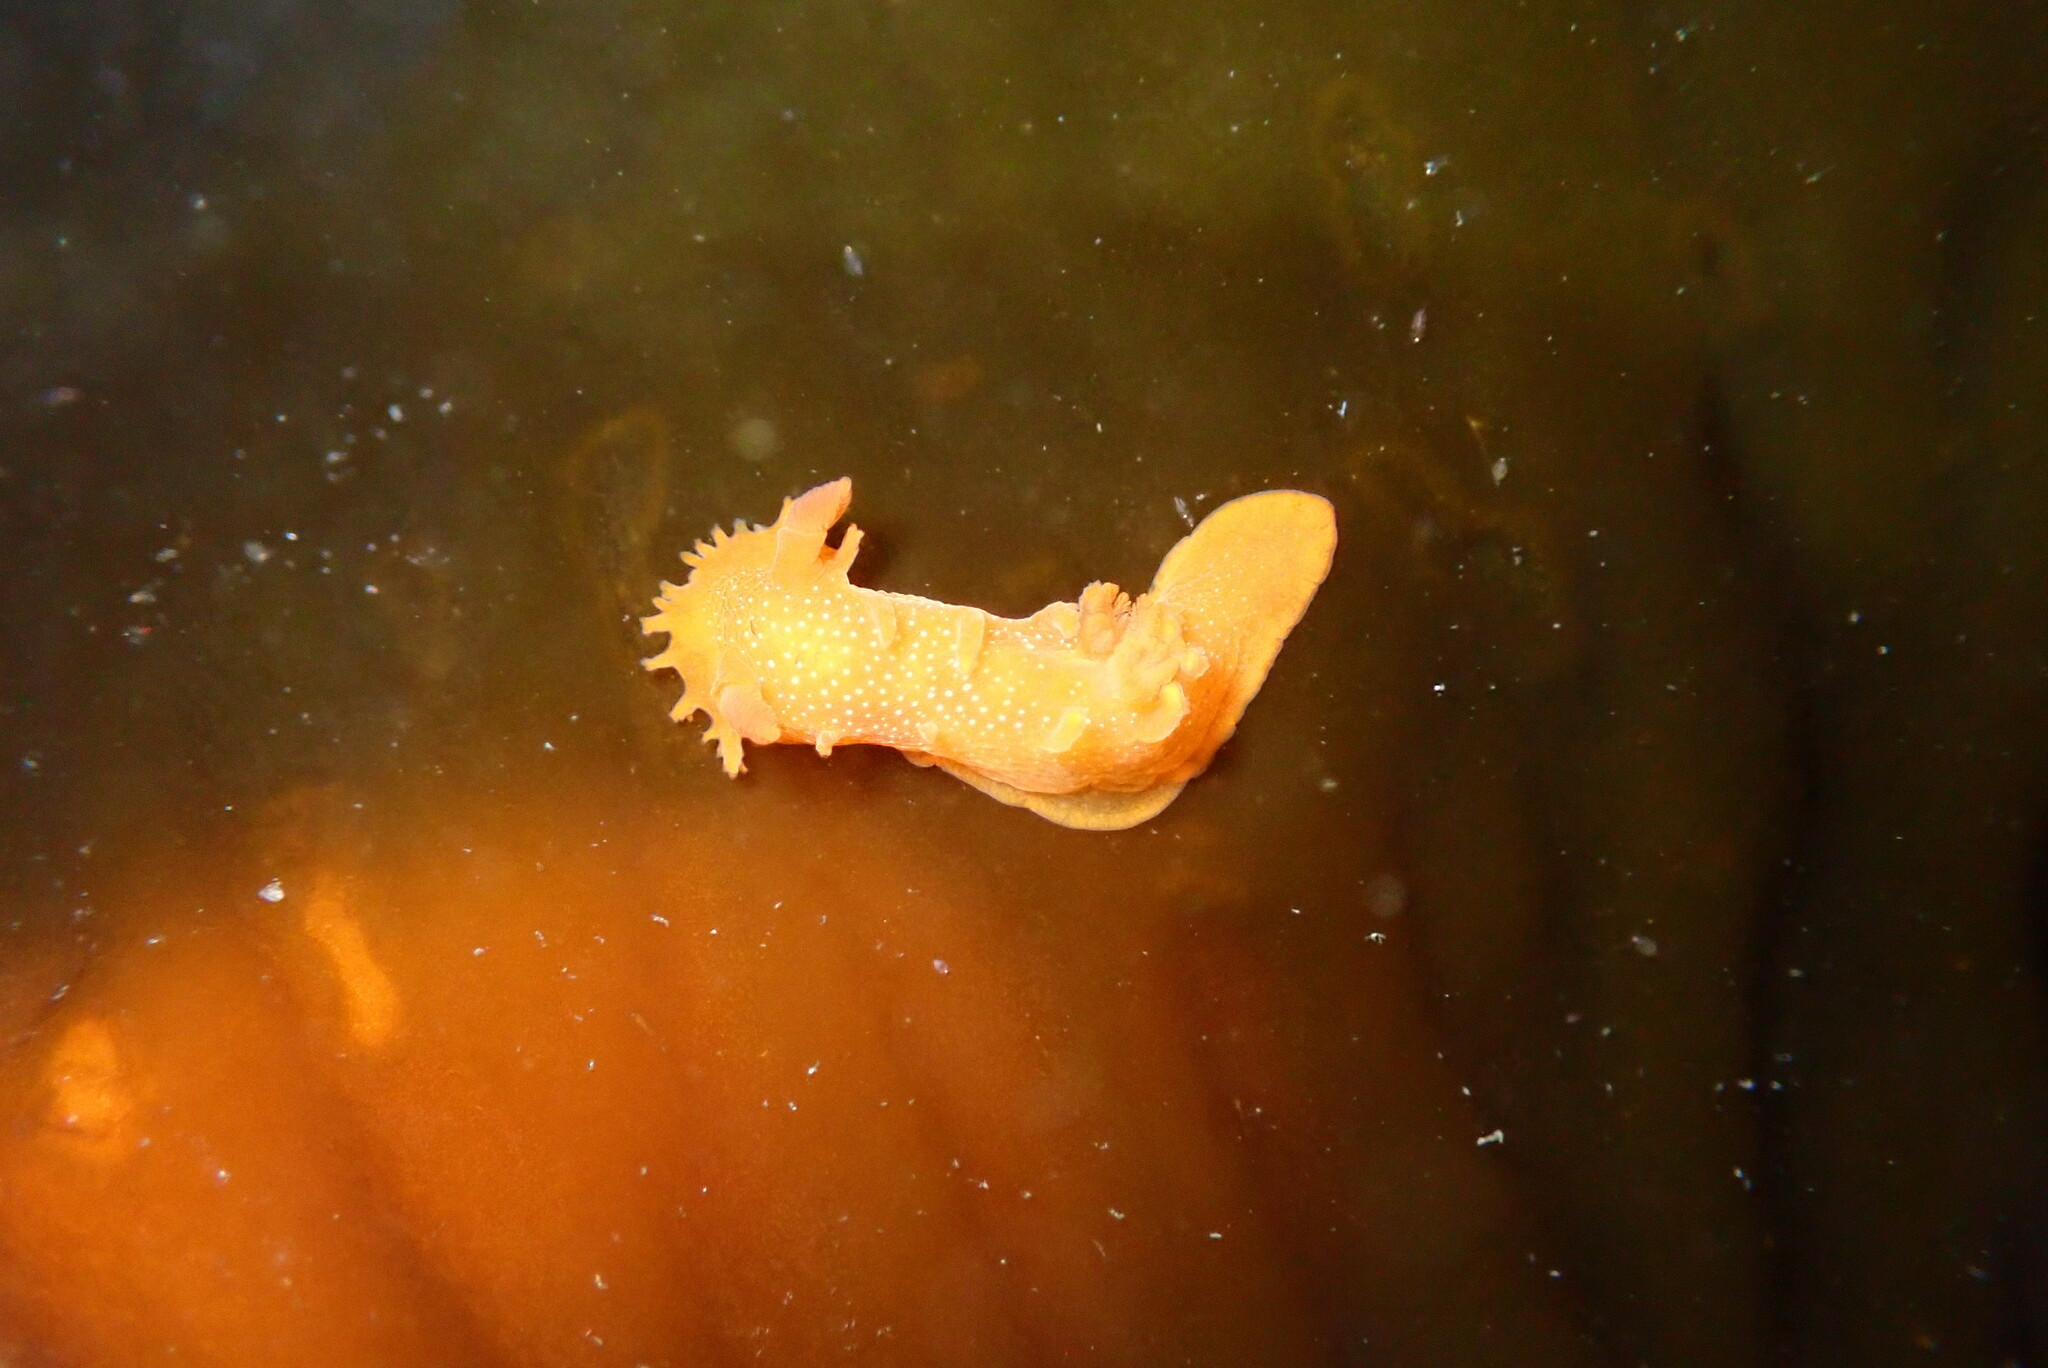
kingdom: Animalia
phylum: Mollusca
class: Gastropoda
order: Nudibranchia
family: Polyceridae
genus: Triopha
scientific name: Triopha maculata
